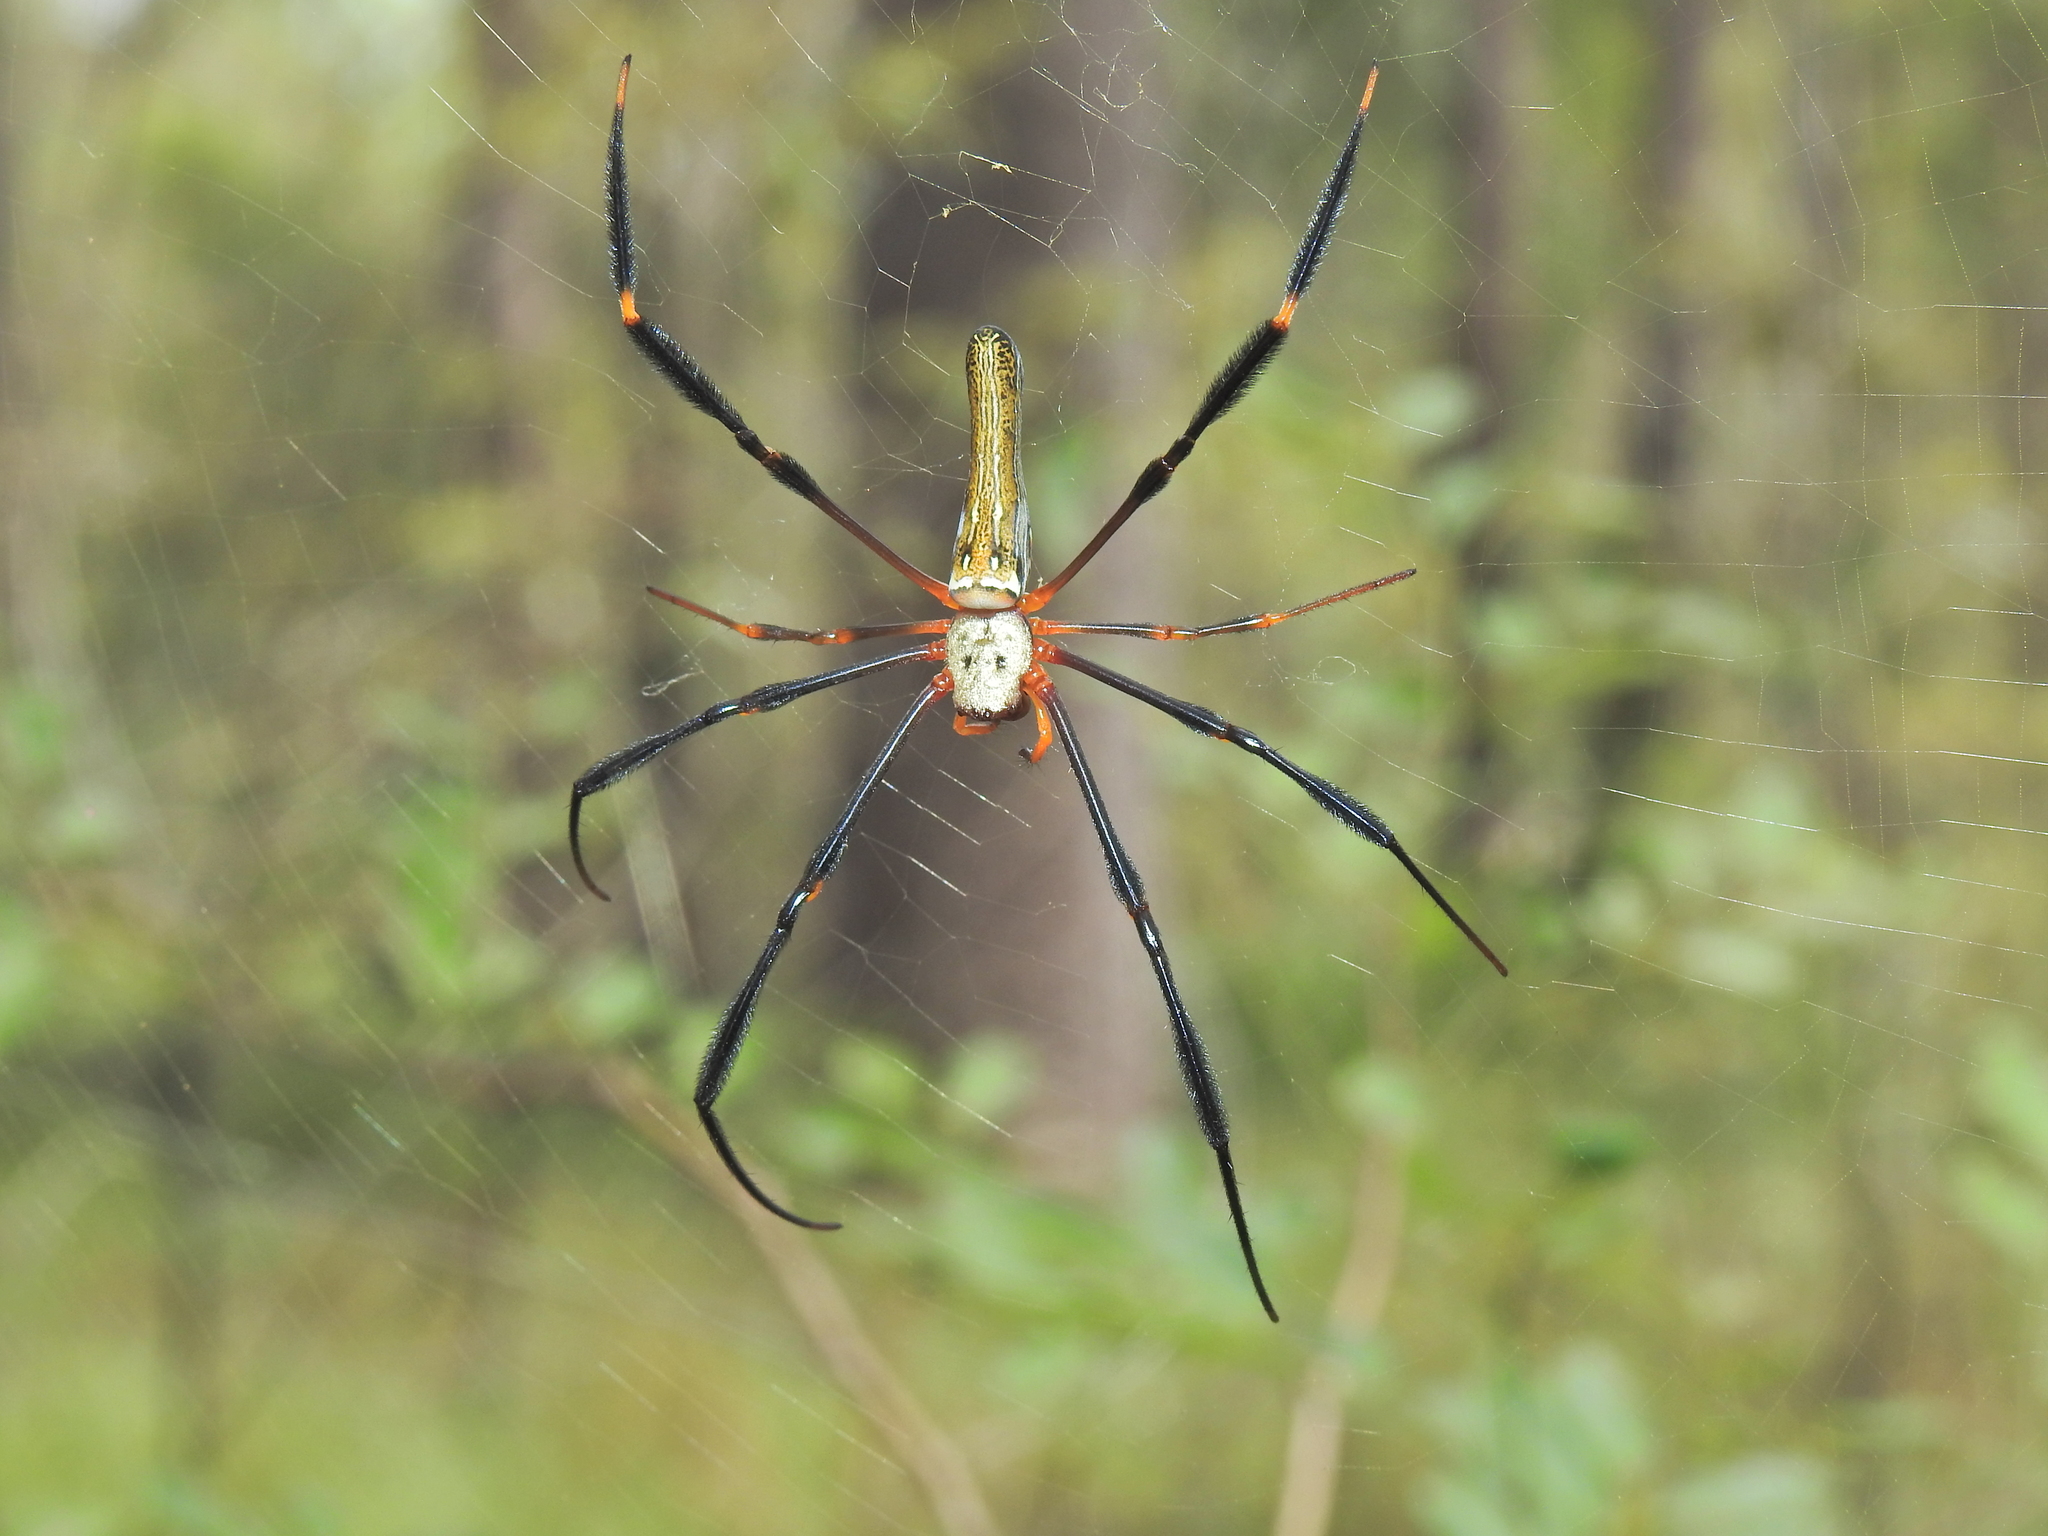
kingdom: Animalia
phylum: Arthropoda
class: Arachnida
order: Araneae
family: Araneidae
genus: Nephila
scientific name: Nephila pilipes
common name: Giant golden orb weaver
